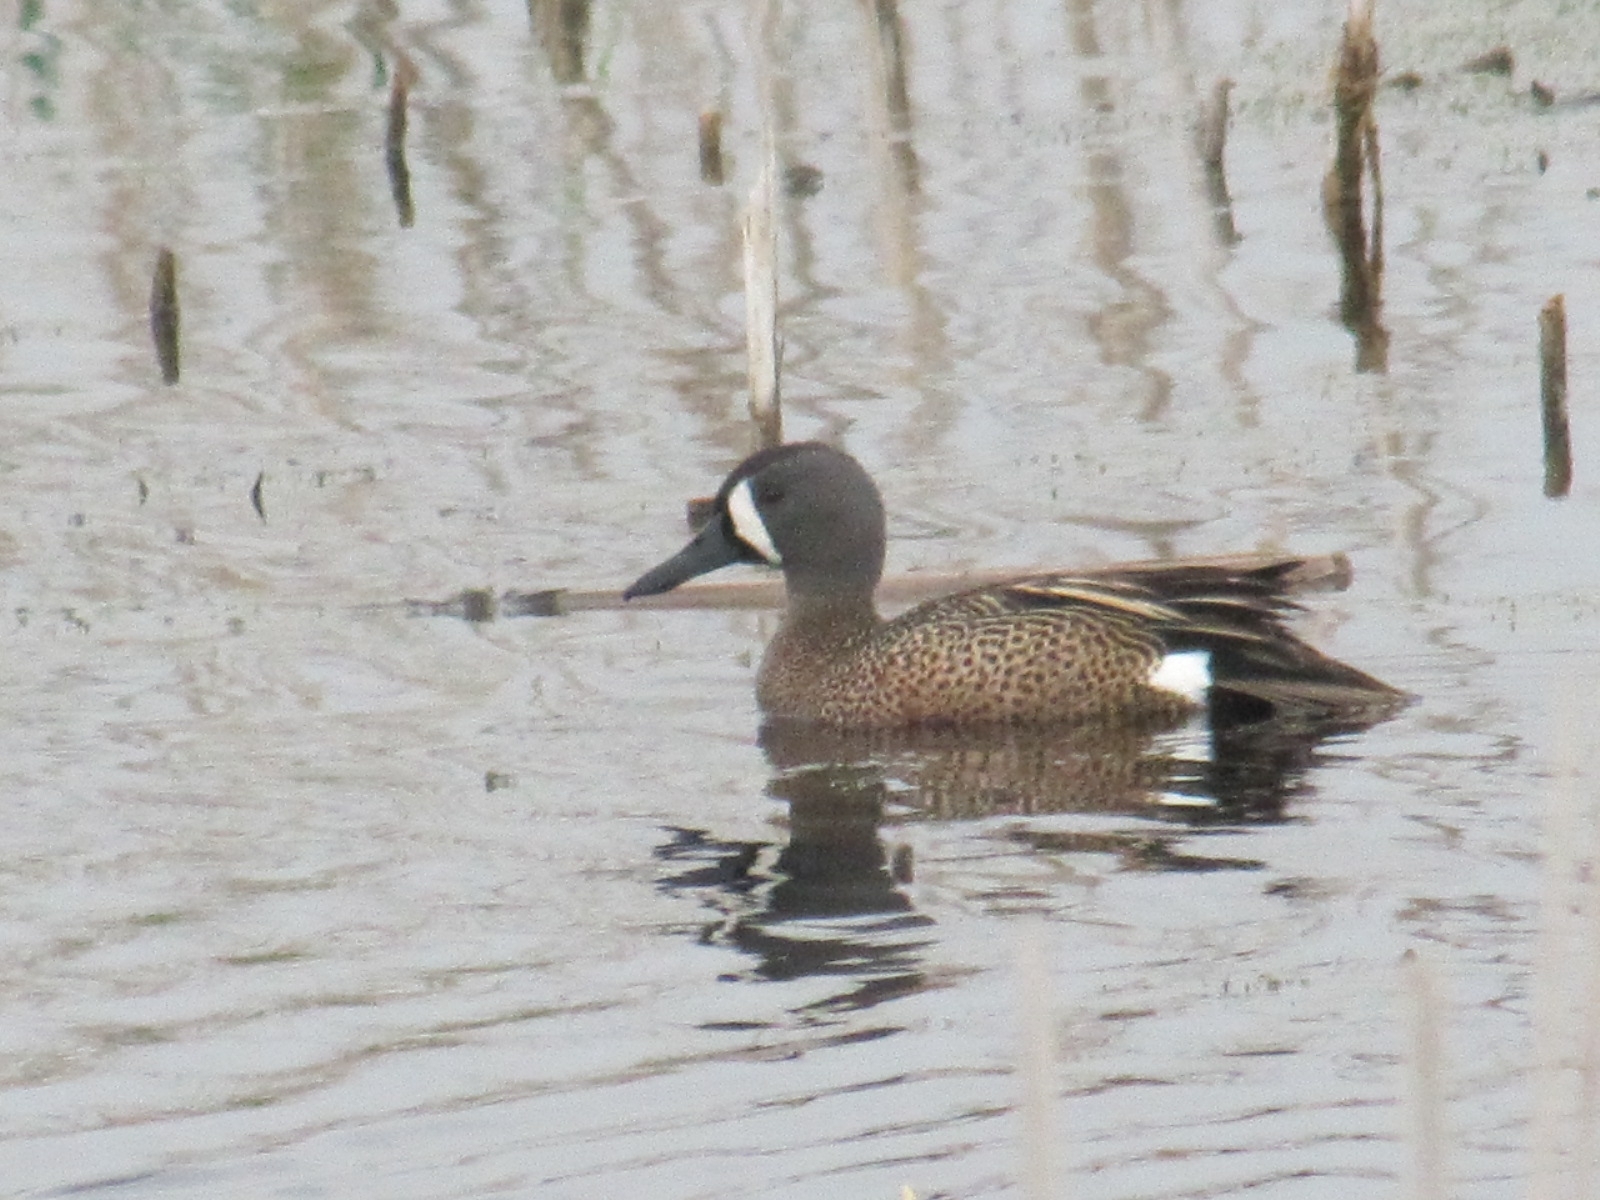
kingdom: Animalia
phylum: Chordata
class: Aves
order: Anseriformes
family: Anatidae
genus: Spatula
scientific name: Spatula discors
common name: Blue-winged teal
